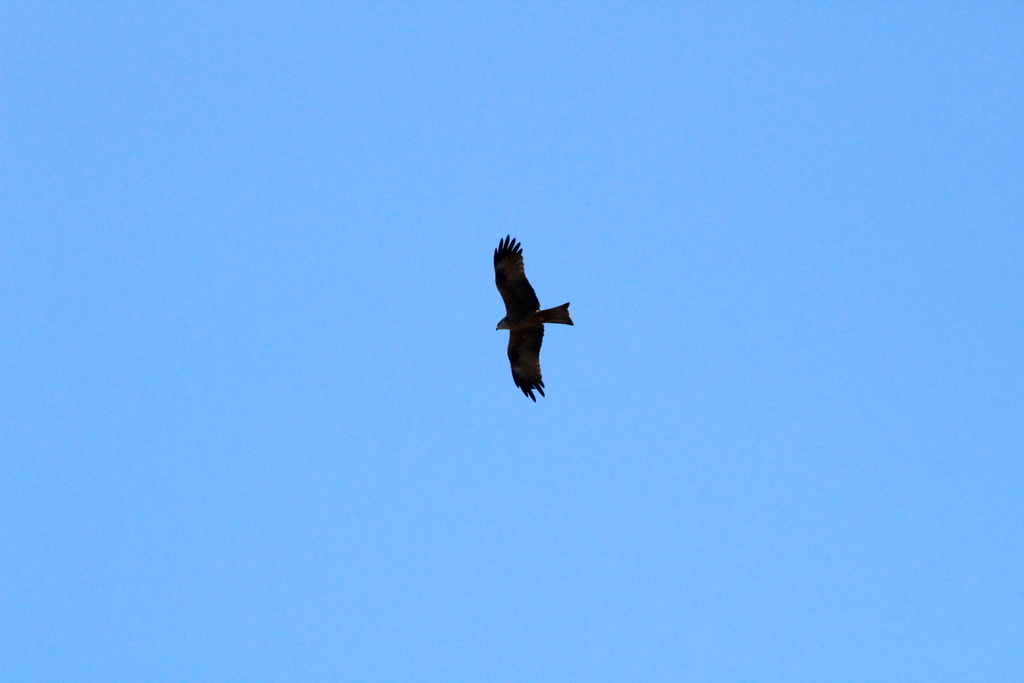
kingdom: Animalia
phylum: Chordata
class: Aves
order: Accipitriformes
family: Accipitridae
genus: Milvus
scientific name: Milvus migrans
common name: Black kite
